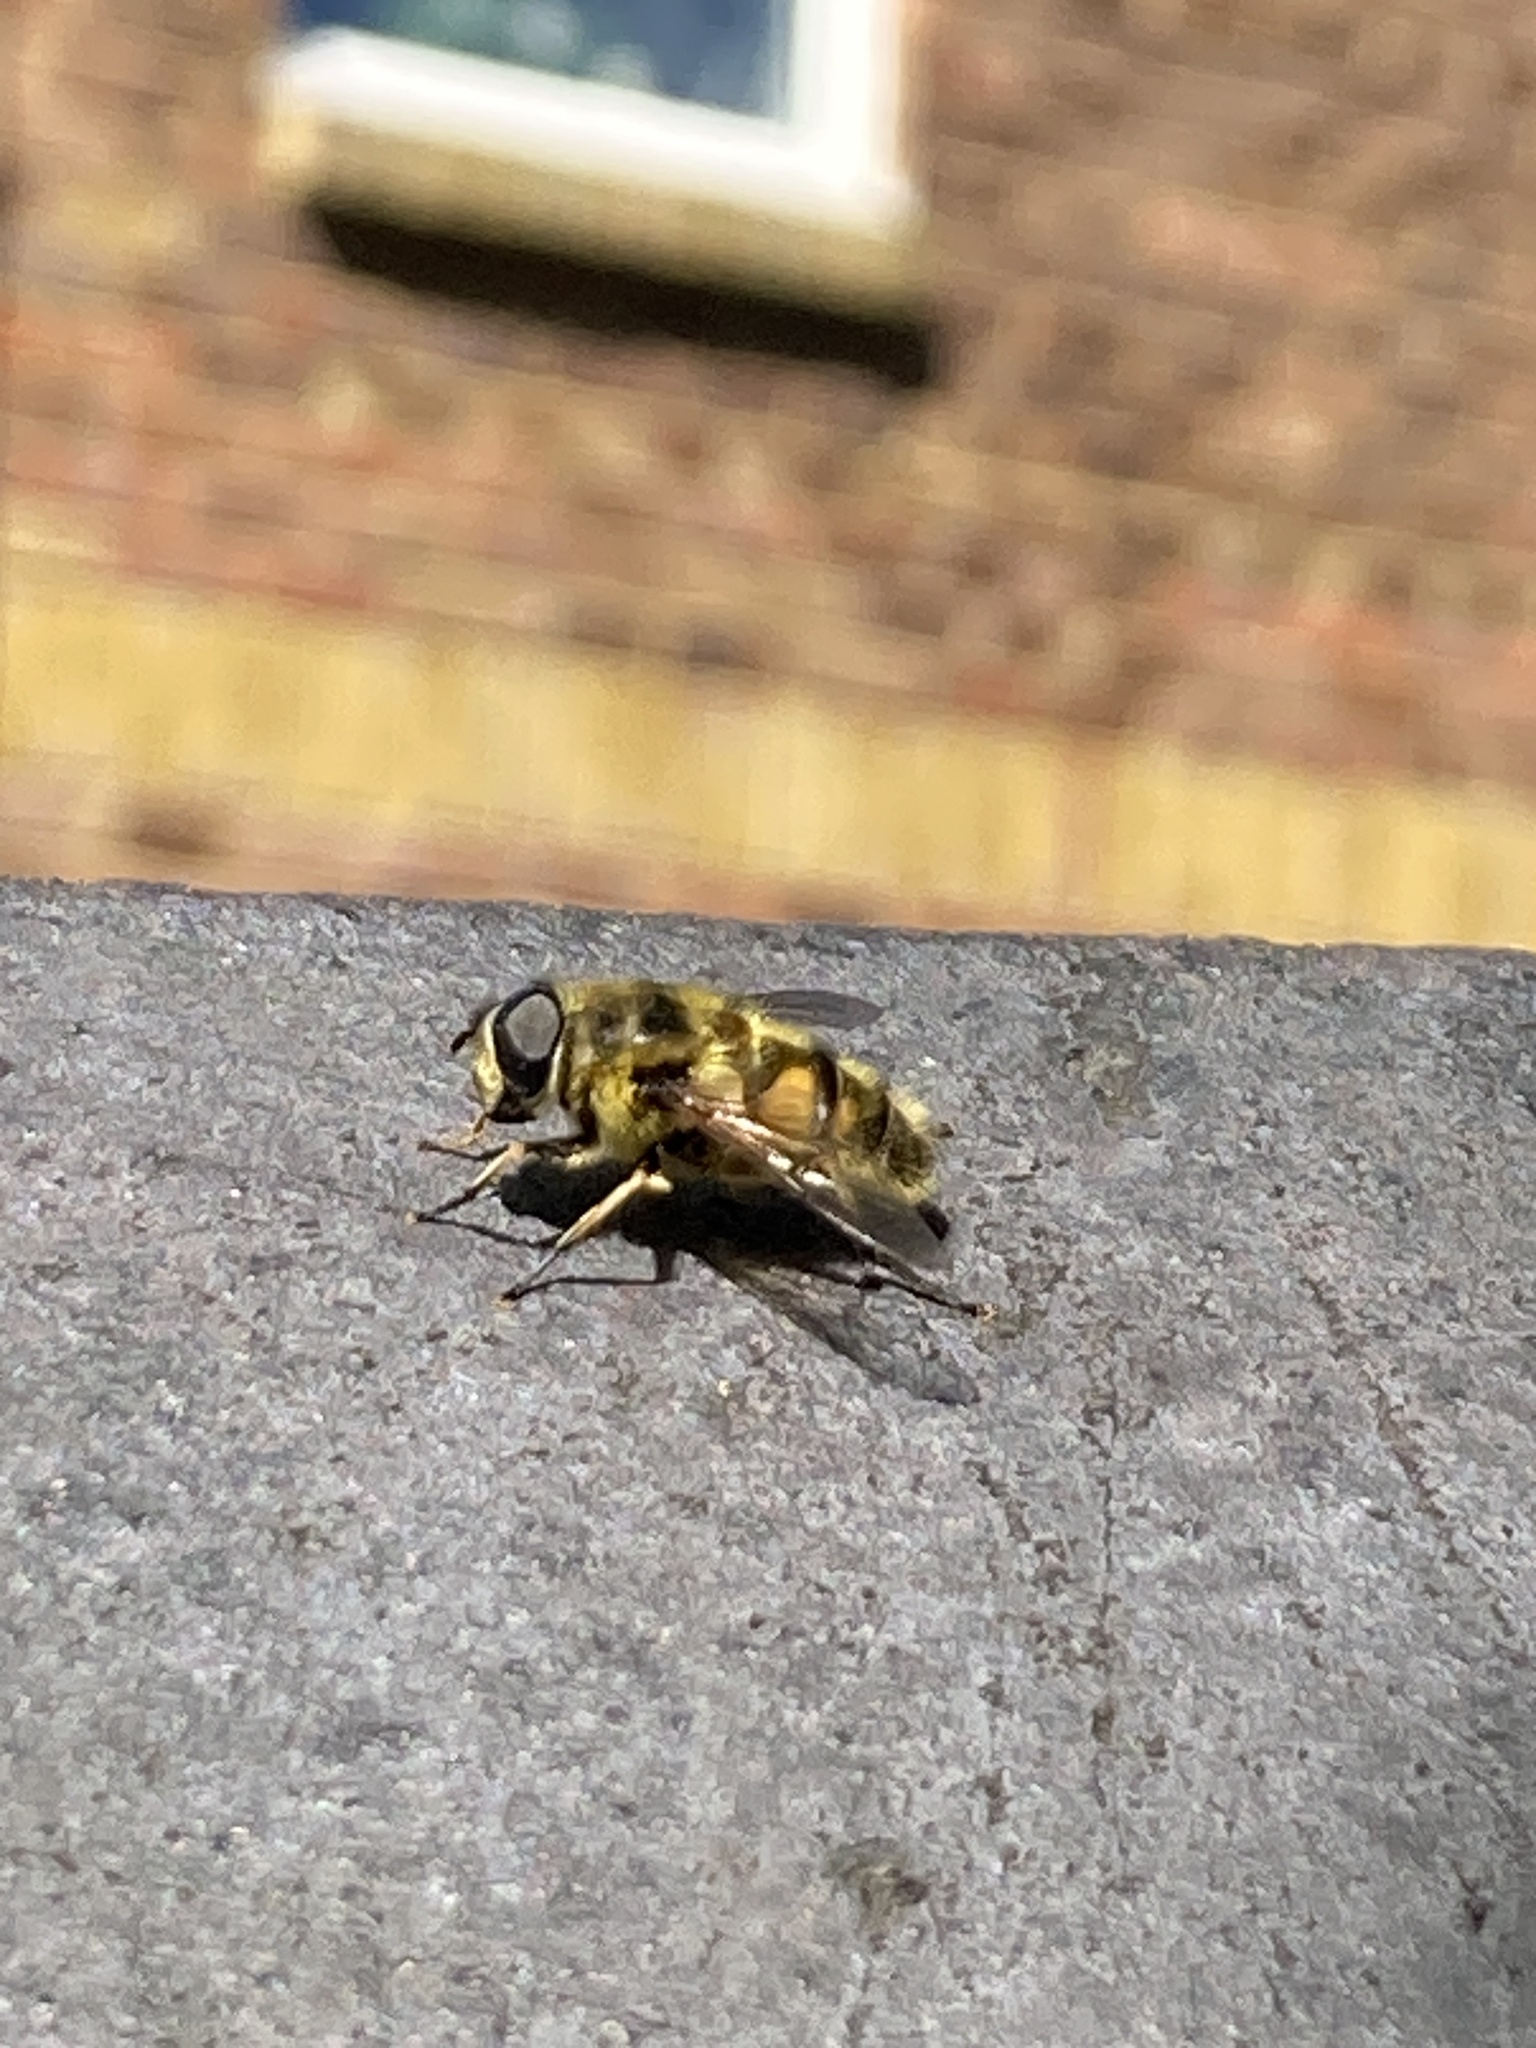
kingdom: Animalia
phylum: Arthropoda
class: Insecta
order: Diptera
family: Syrphidae
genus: Myathropa
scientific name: Myathropa florea
